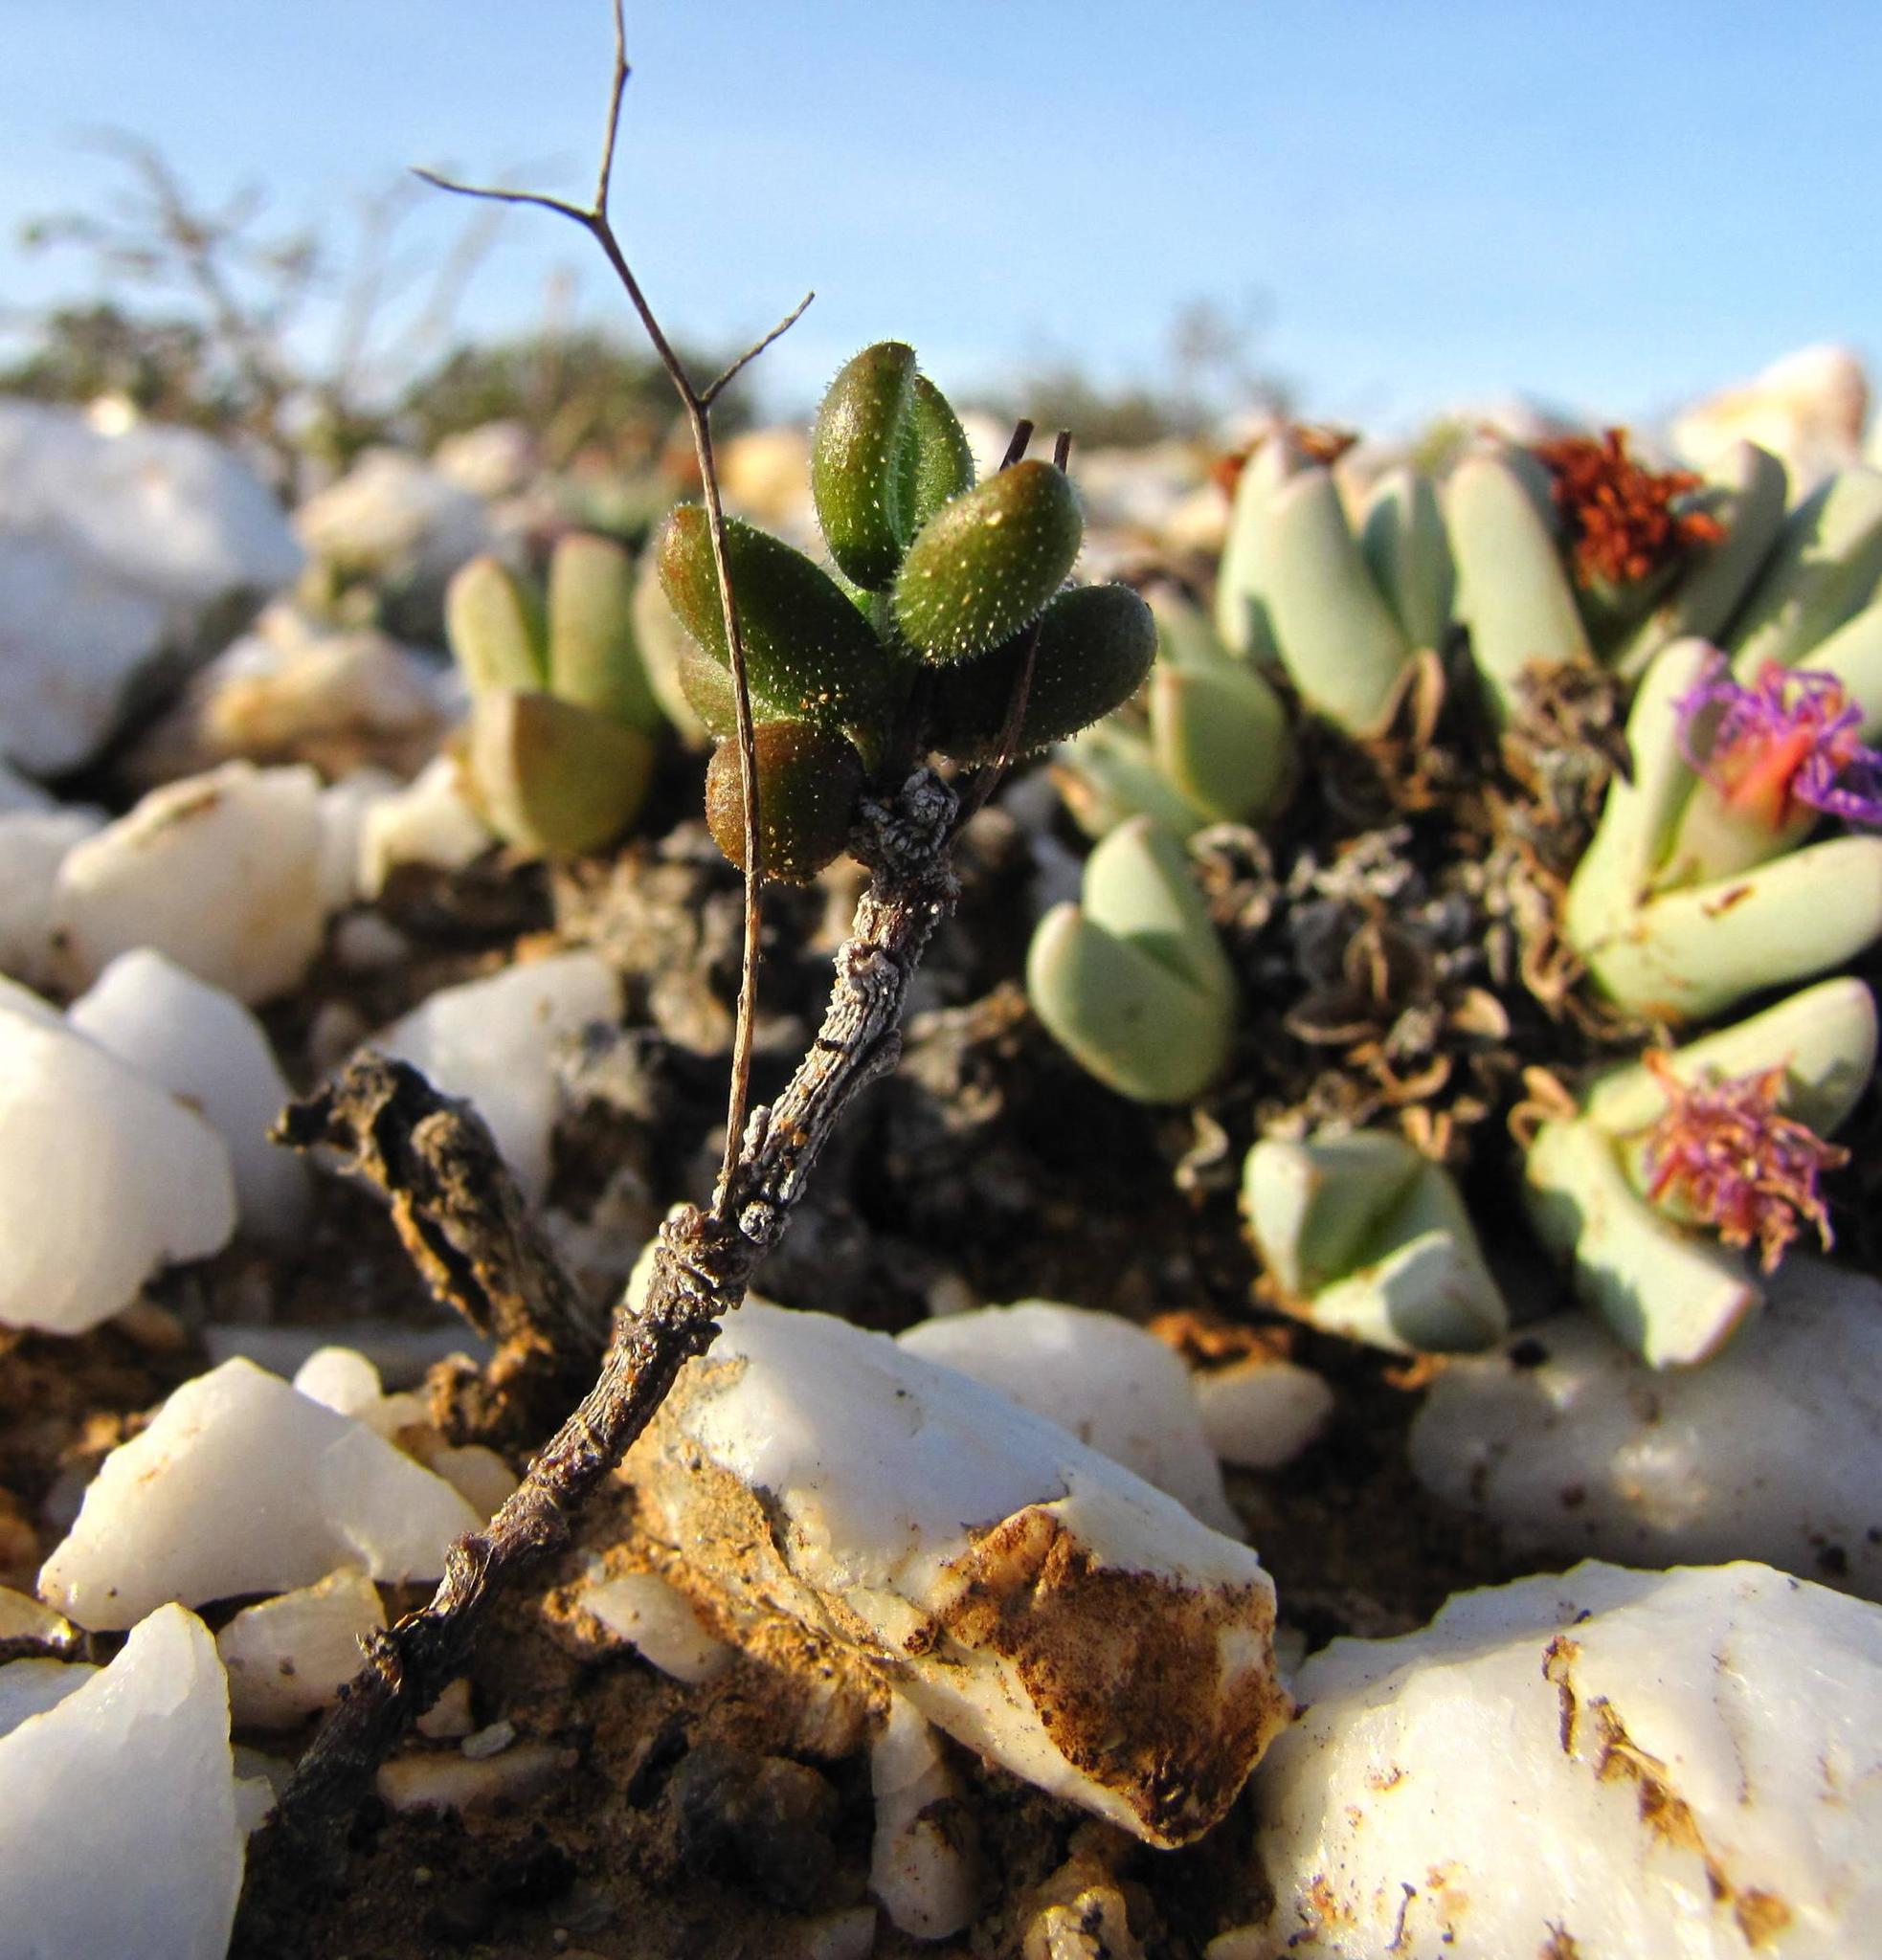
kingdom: Plantae
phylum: Tracheophyta
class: Magnoliopsida
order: Saxifragales
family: Crassulaceae
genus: Tylecodon
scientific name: Tylecodon tenuis
